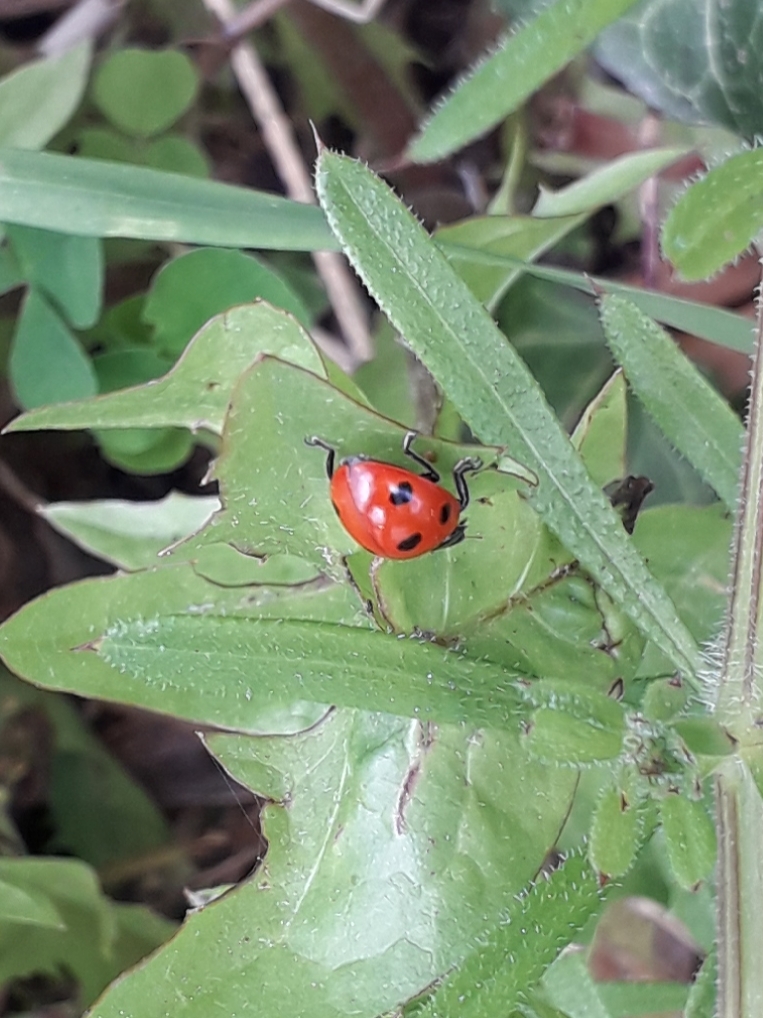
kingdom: Animalia
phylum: Arthropoda
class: Insecta
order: Coleoptera
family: Coccinellidae
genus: Coccinella
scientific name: Coccinella septempunctata
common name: Sevenspotted lady beetle
